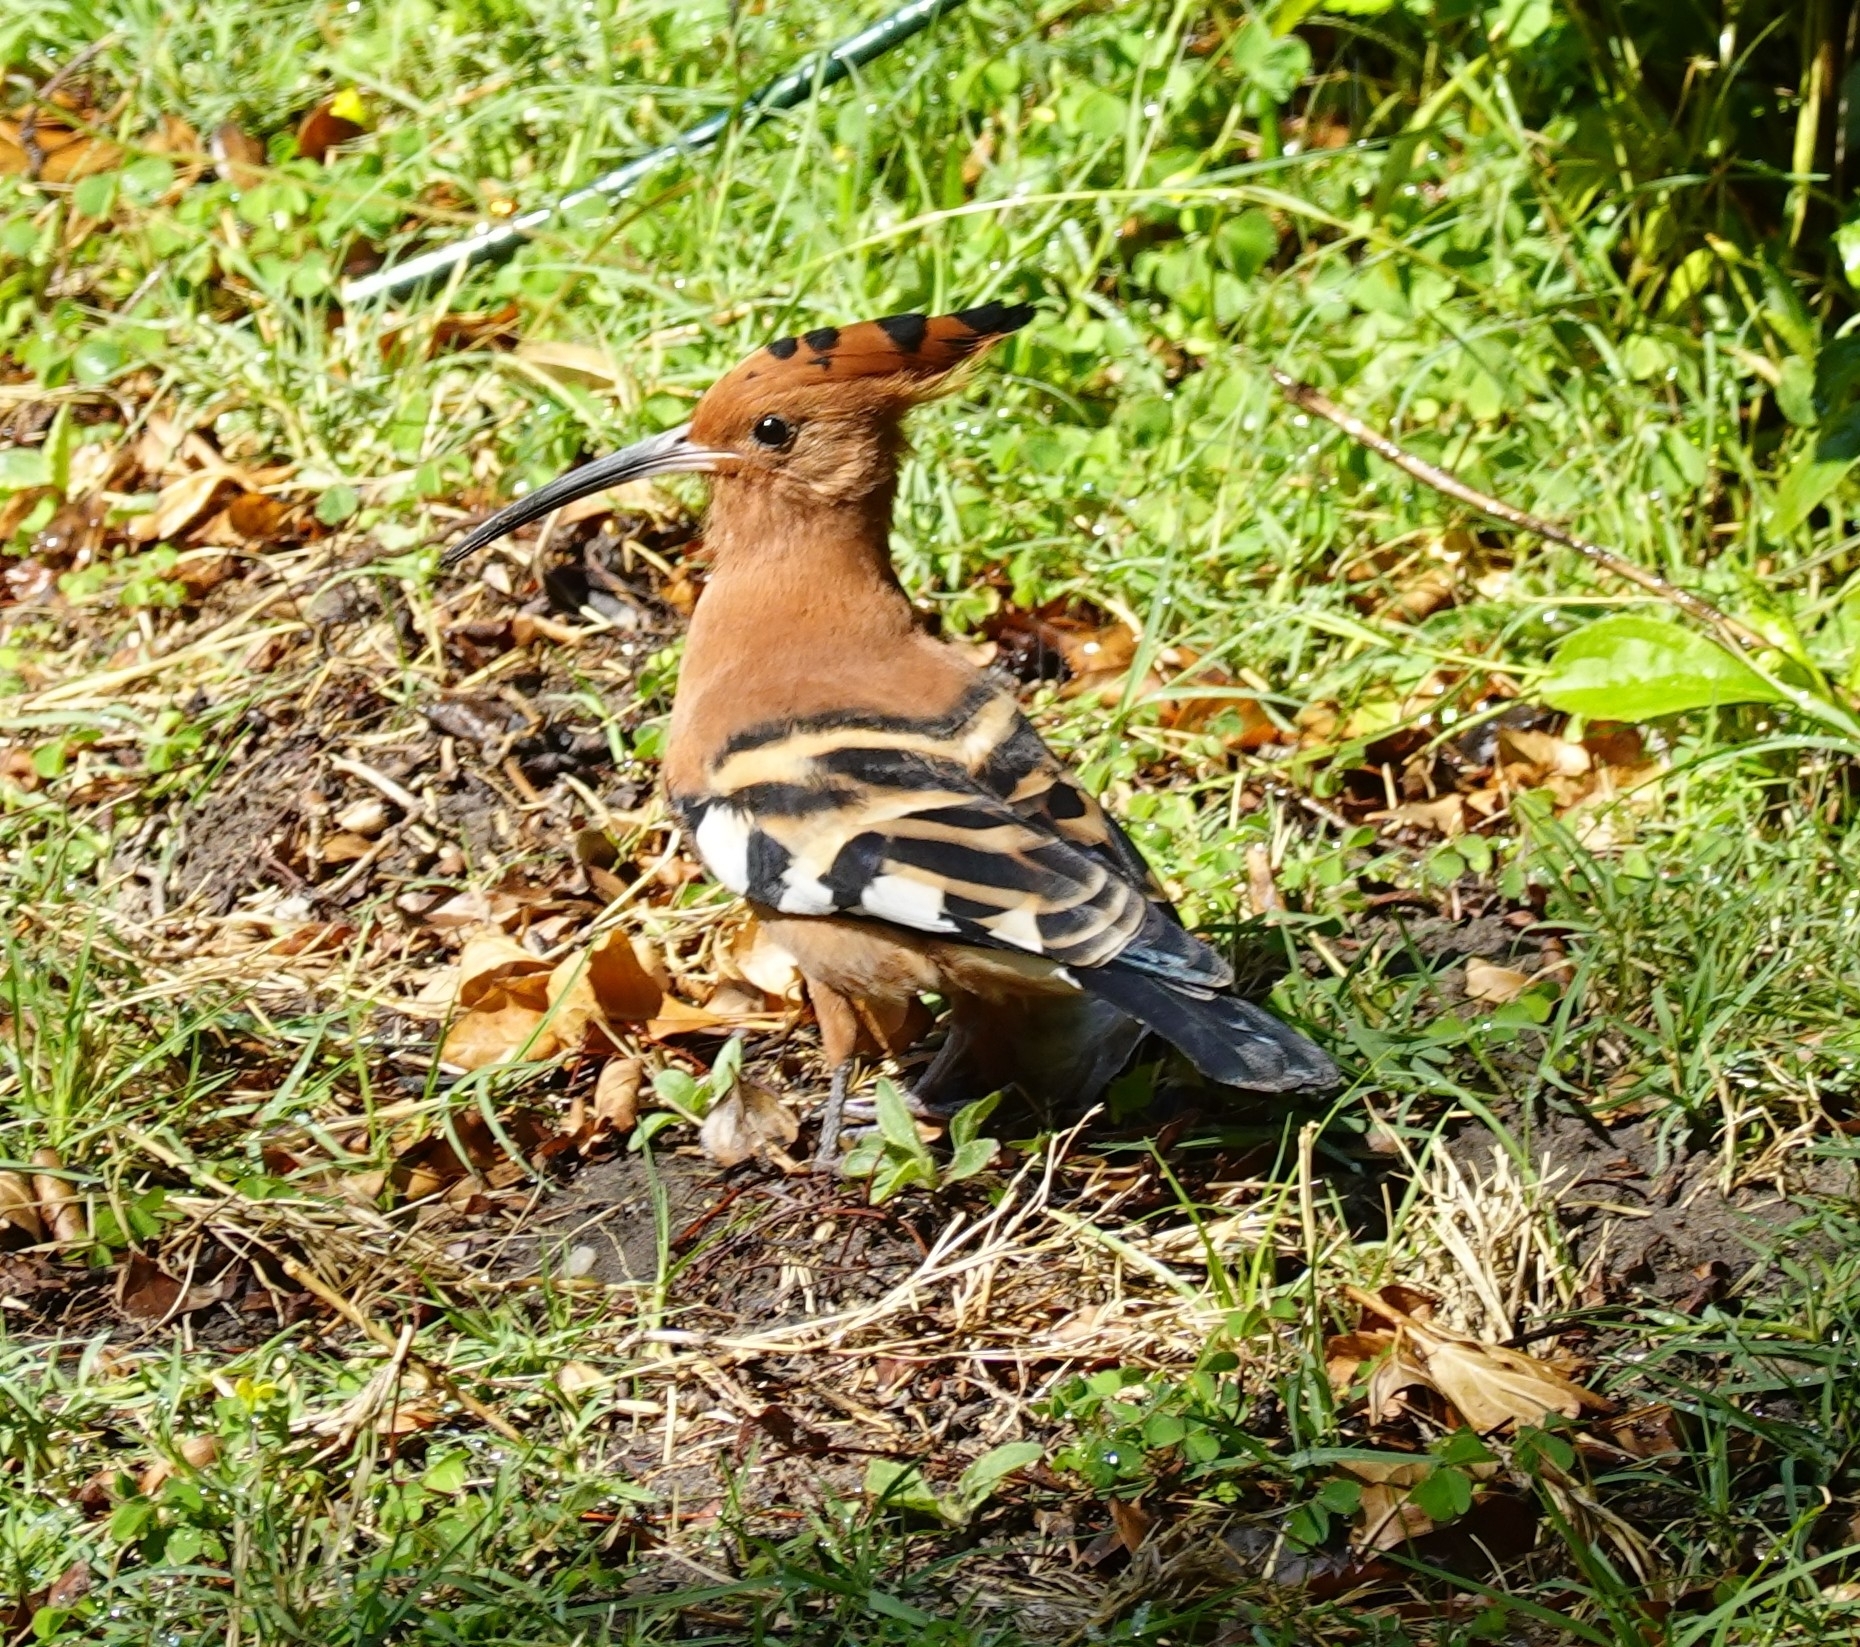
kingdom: Animalia
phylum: Chordata
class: Aves
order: Bucerotiformes
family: Upupidae
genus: Upupa
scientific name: Upupa africana
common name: African hoopoe
